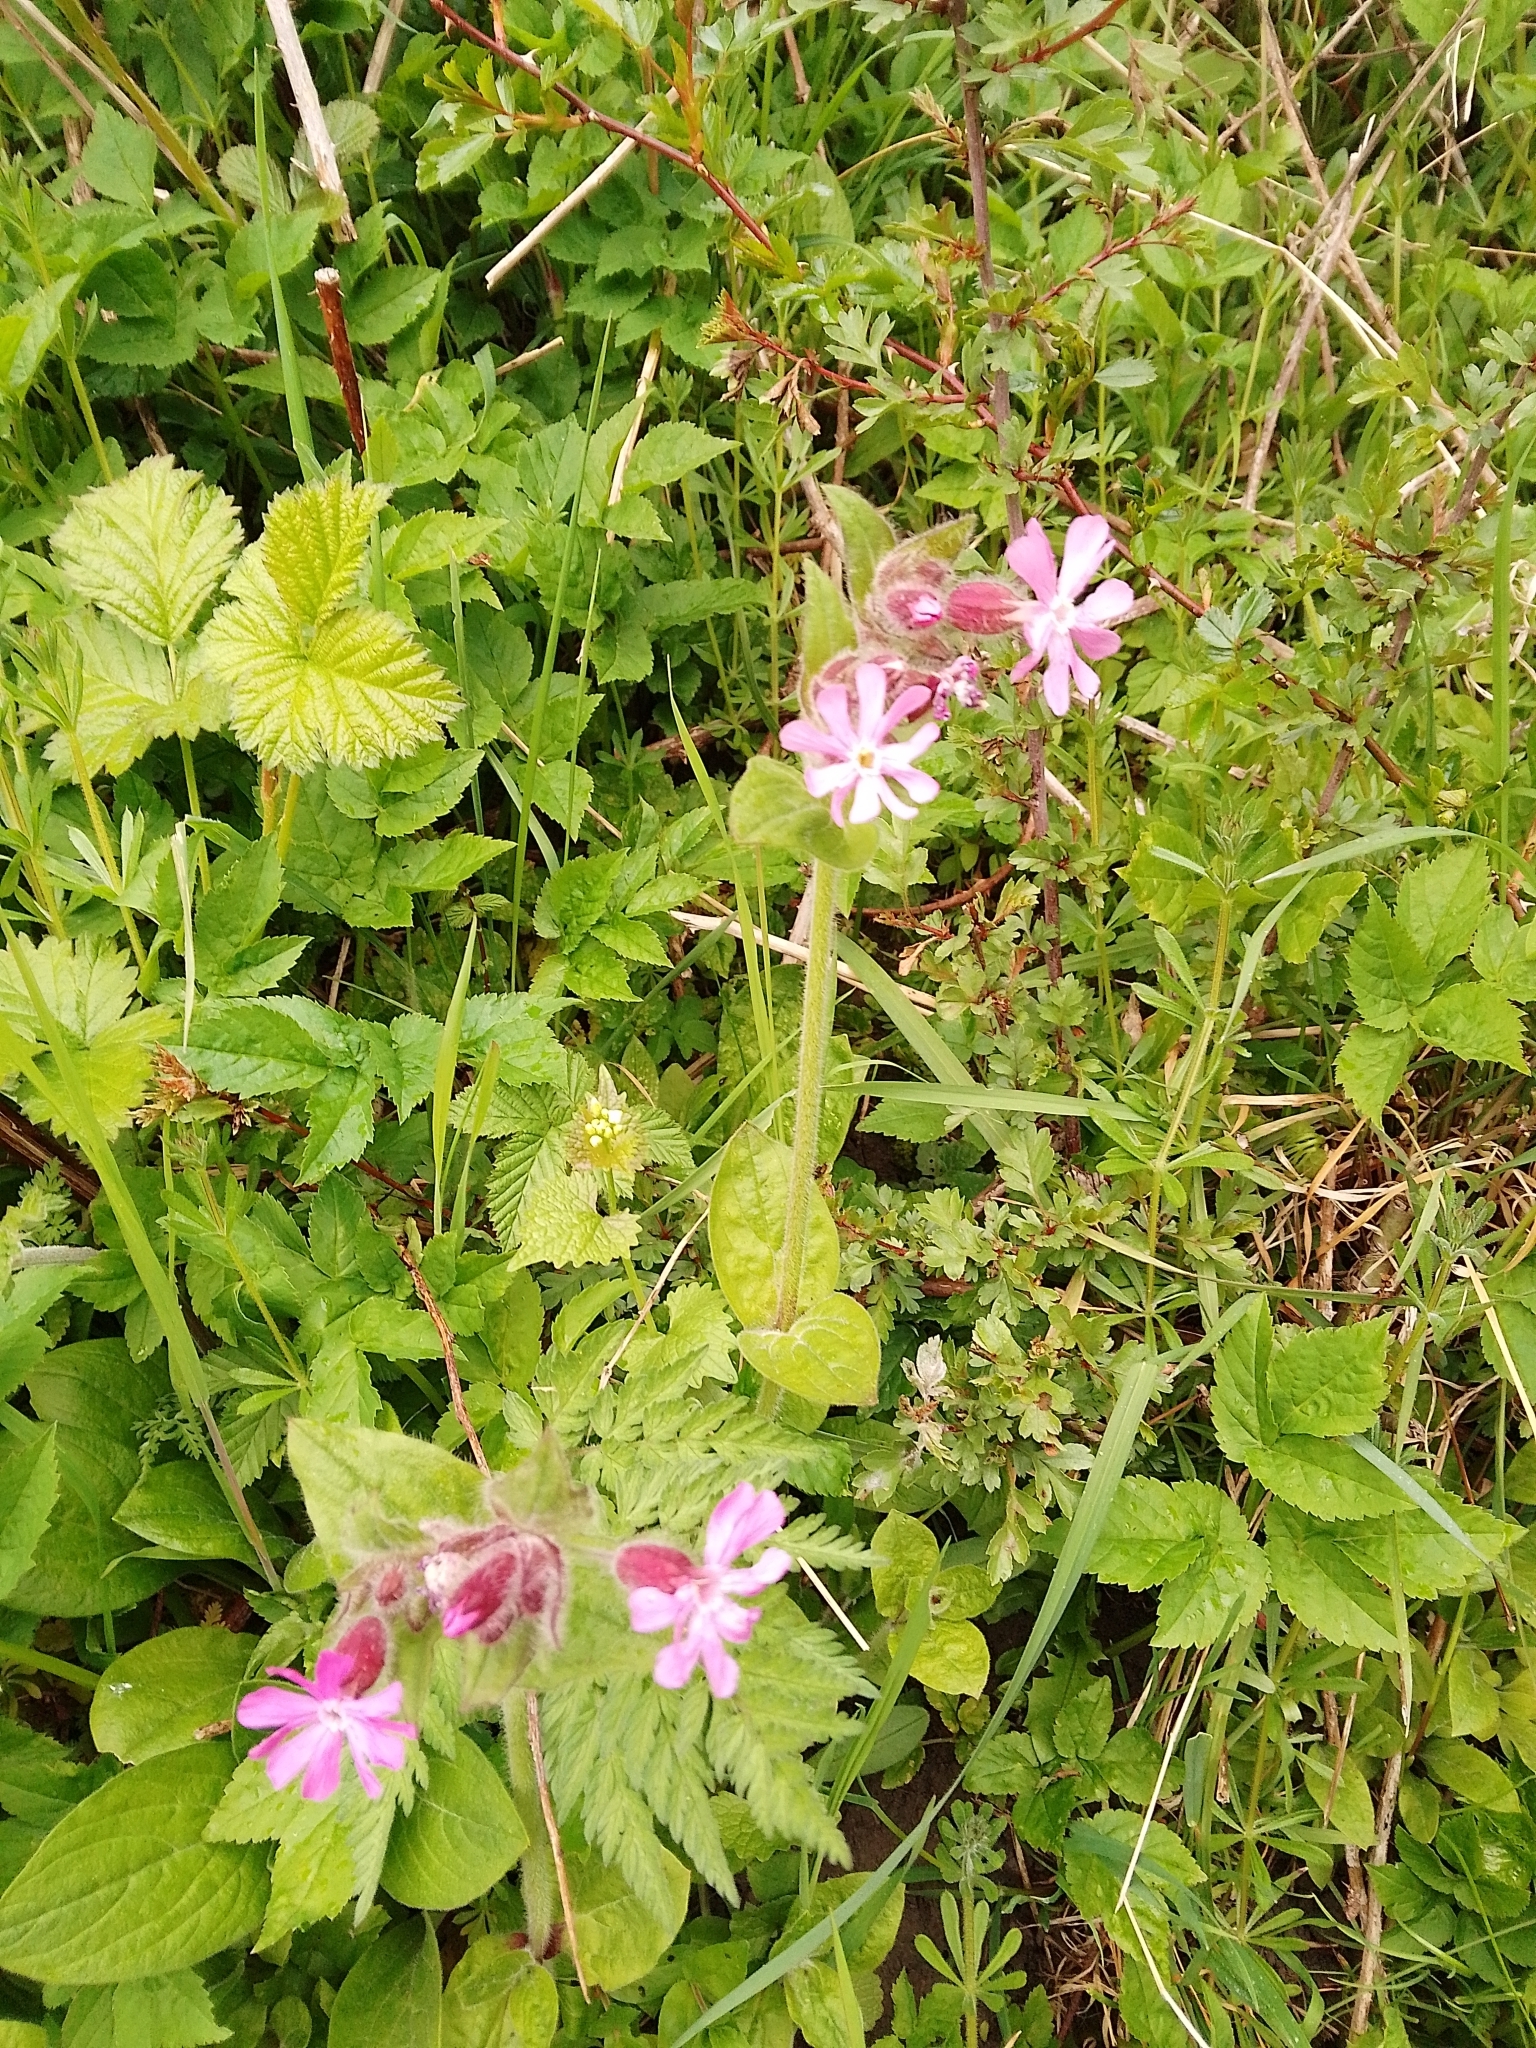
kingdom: Plantae
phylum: Tracheophyta
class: Magnoliopsida
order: Caryophyllales
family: Caryophyllaceae
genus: Silene
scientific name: Silene dioica
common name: Red campion
